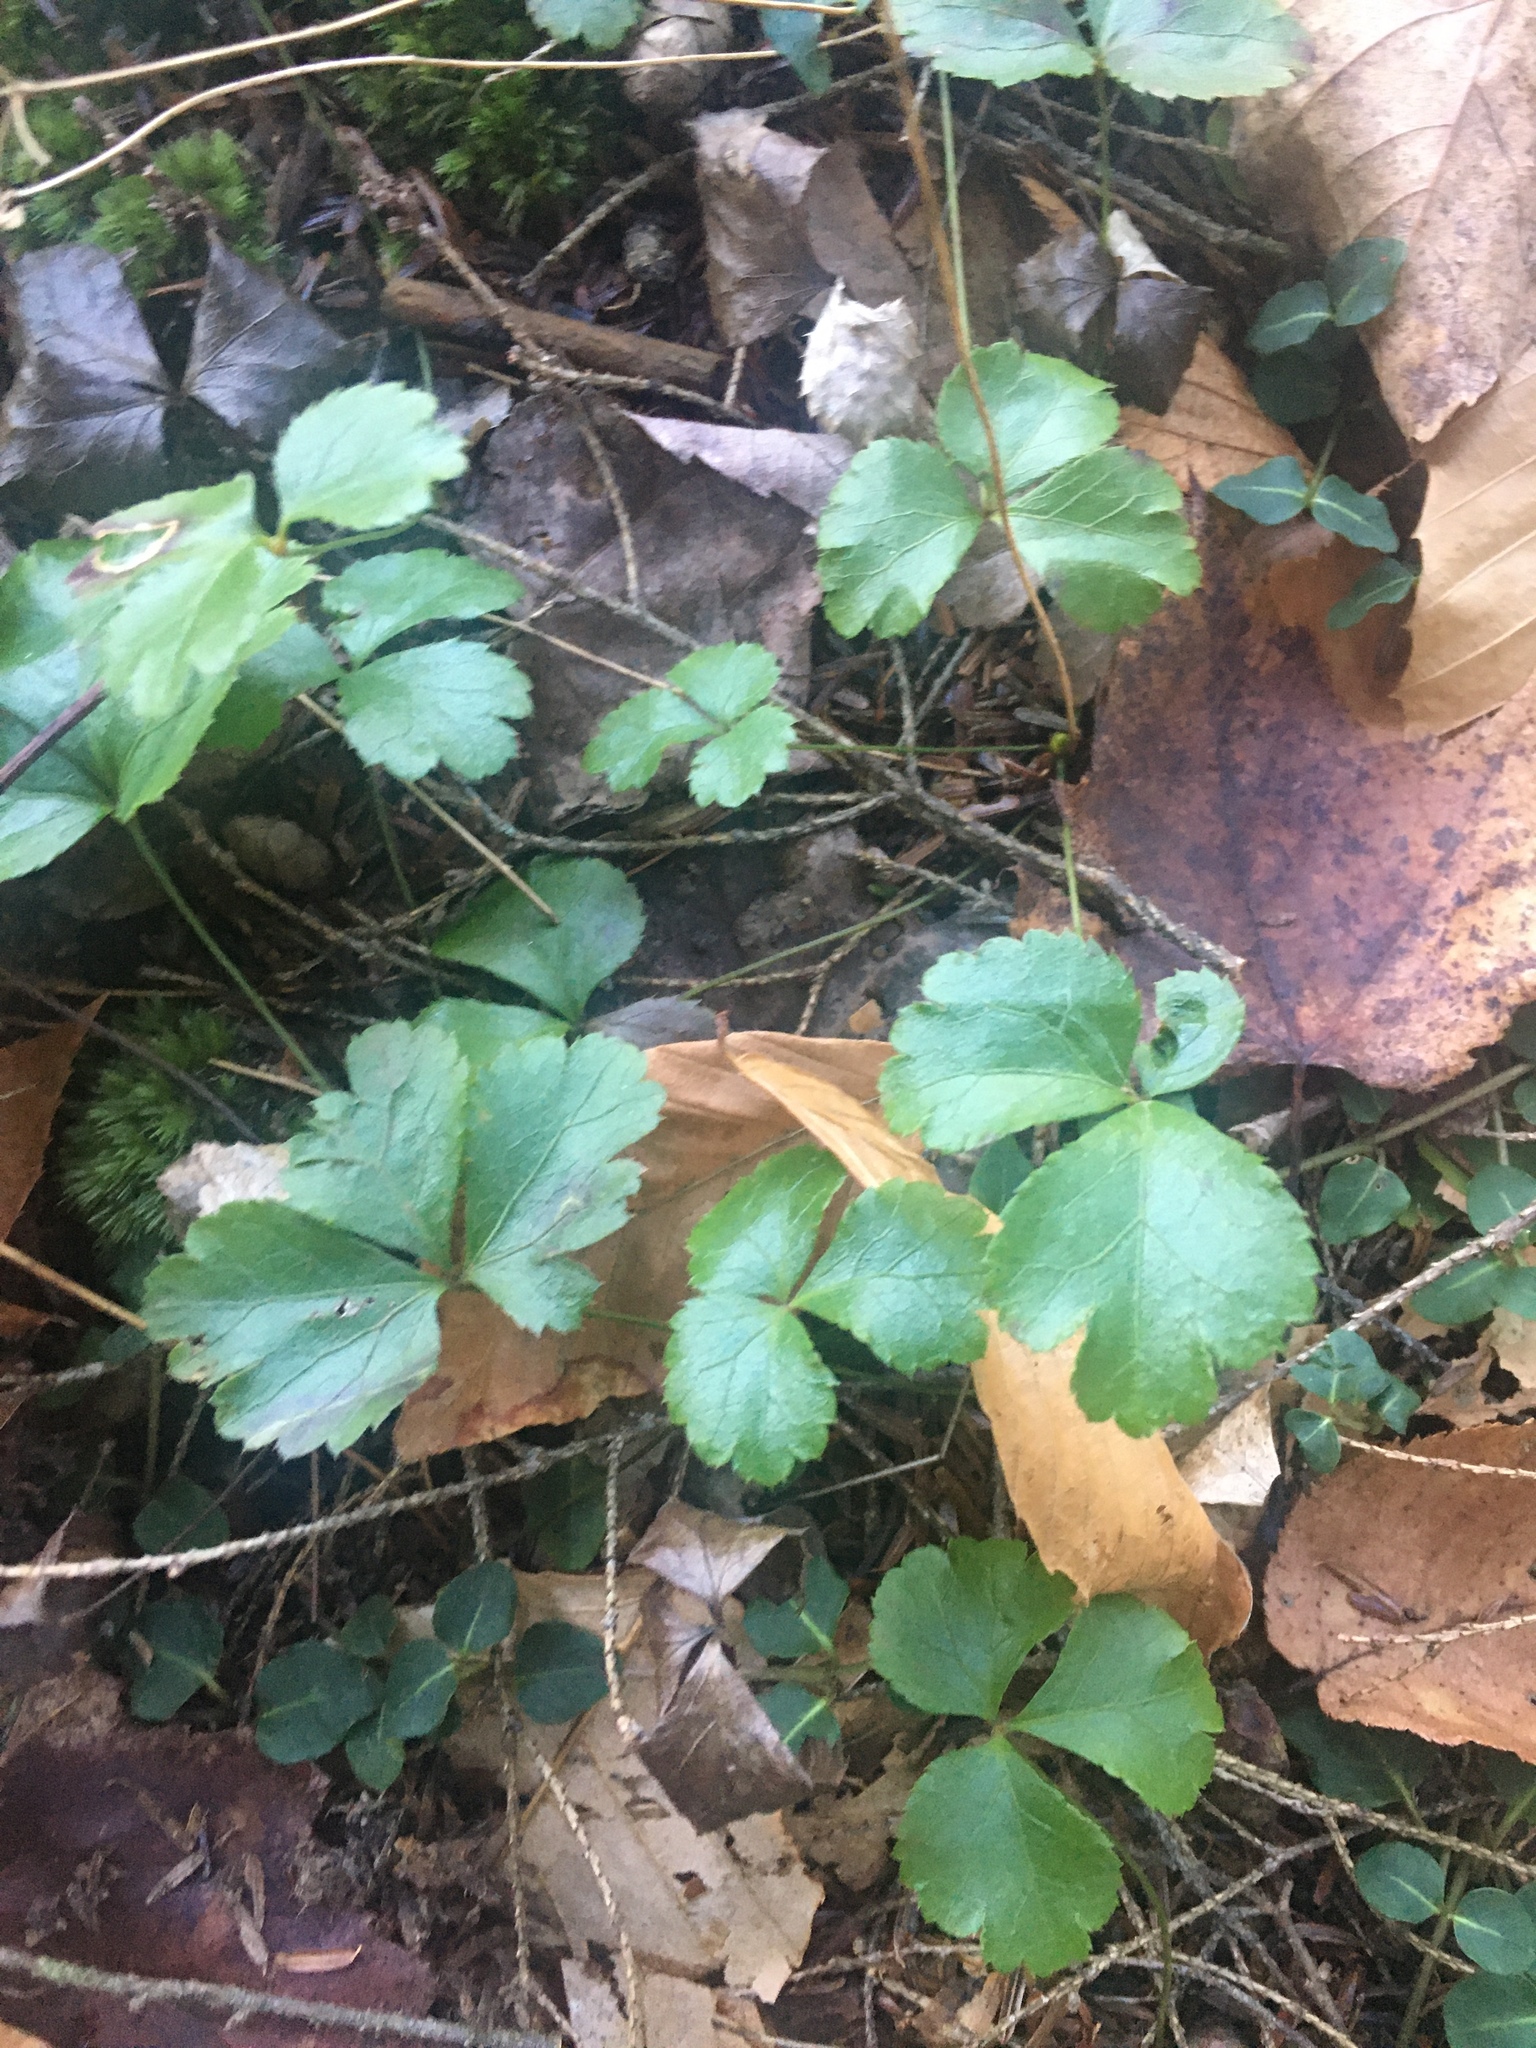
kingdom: Plantae
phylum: Tracheophyta
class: Magnoliopsida
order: Ranunculales
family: Ranunculaceae
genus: Coptis
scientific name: Coptis trifolia
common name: Canker-root
